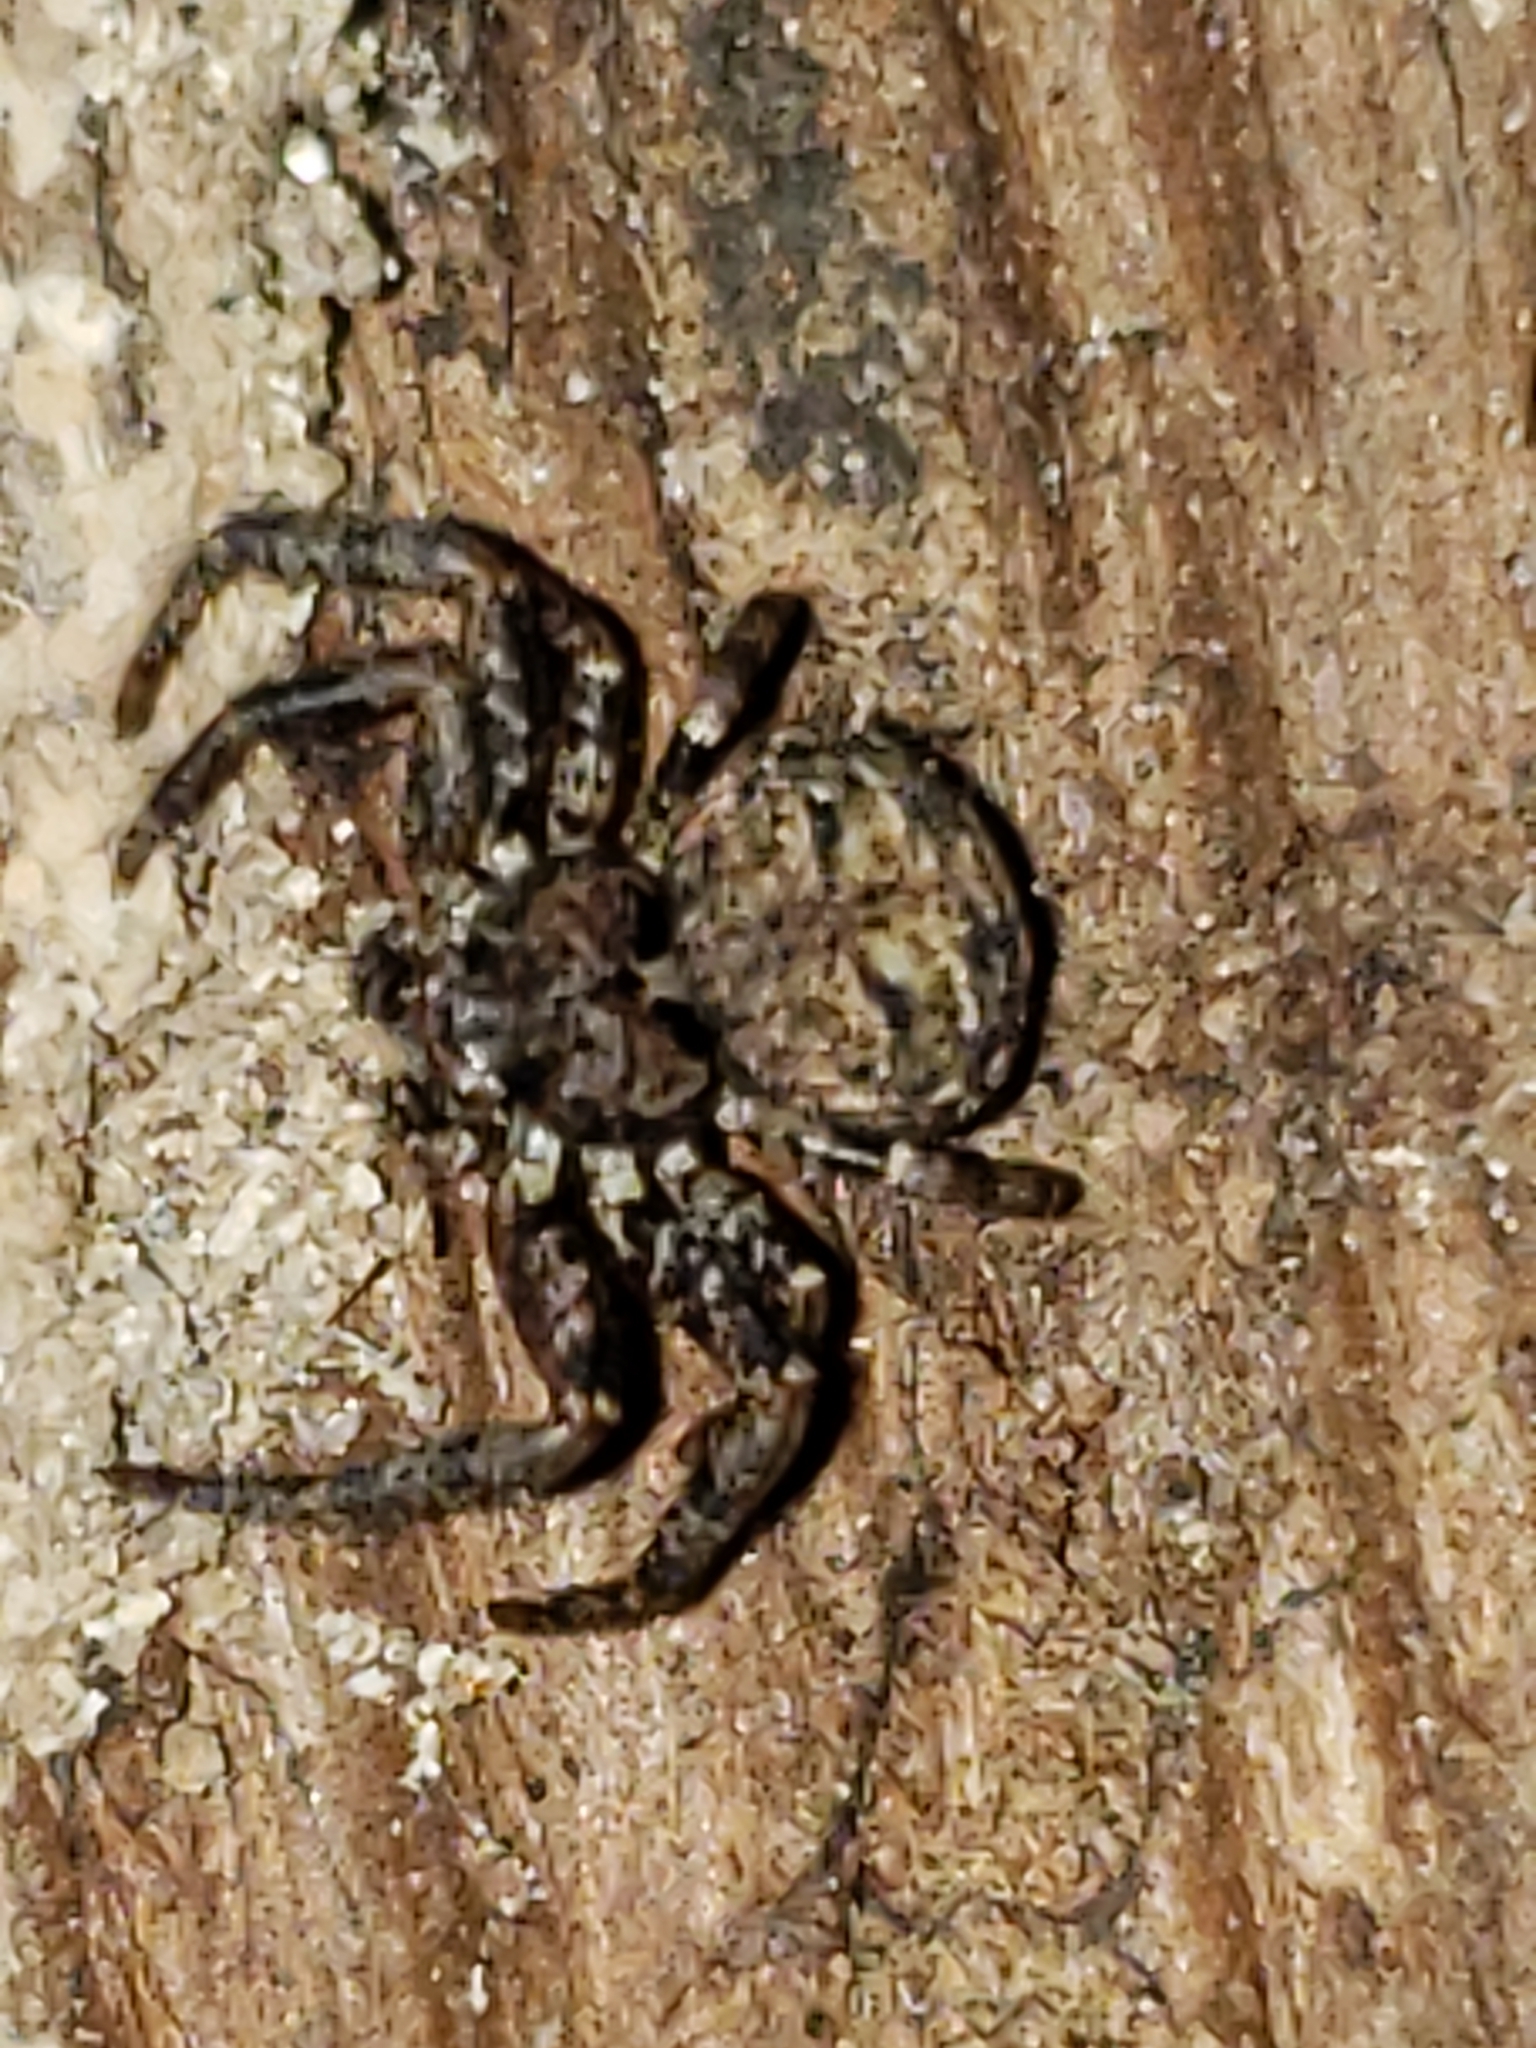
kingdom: Animalia
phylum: Arthropoda
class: Arachnida
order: Araneae
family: Thomisidae
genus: Bassaniana
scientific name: Bassaniana versicolor
